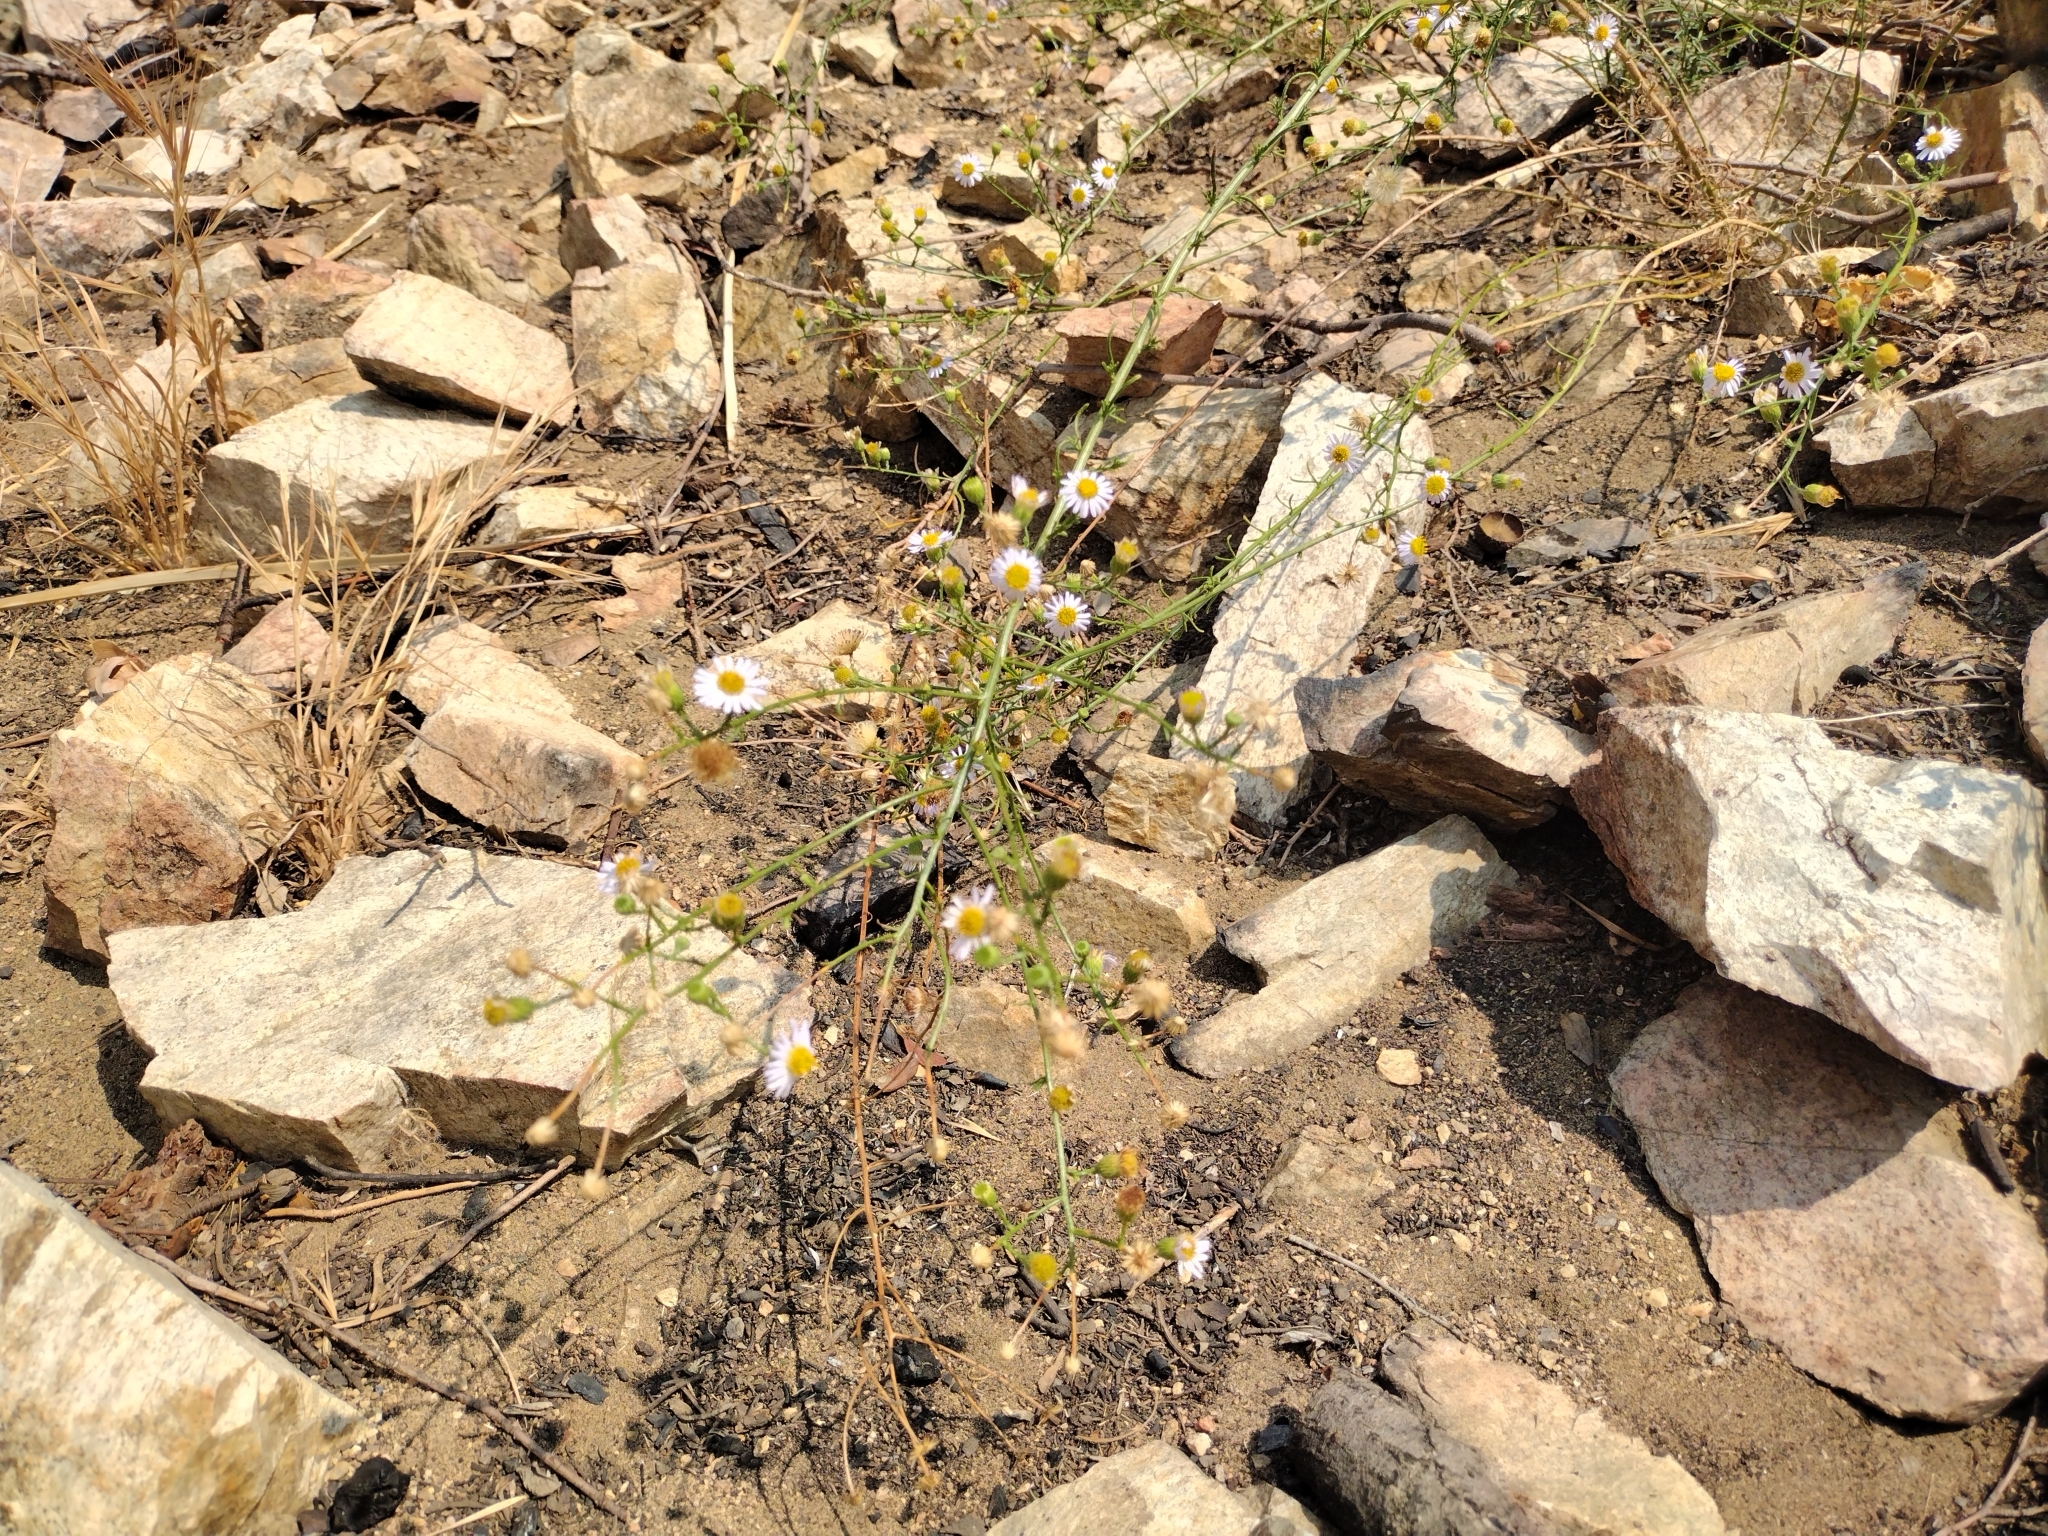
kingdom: Plantae
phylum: Tracheophyta
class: Magnoliopsida
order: Asterales
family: Asteraceae
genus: Erigeron
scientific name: Erigeron foliosus
